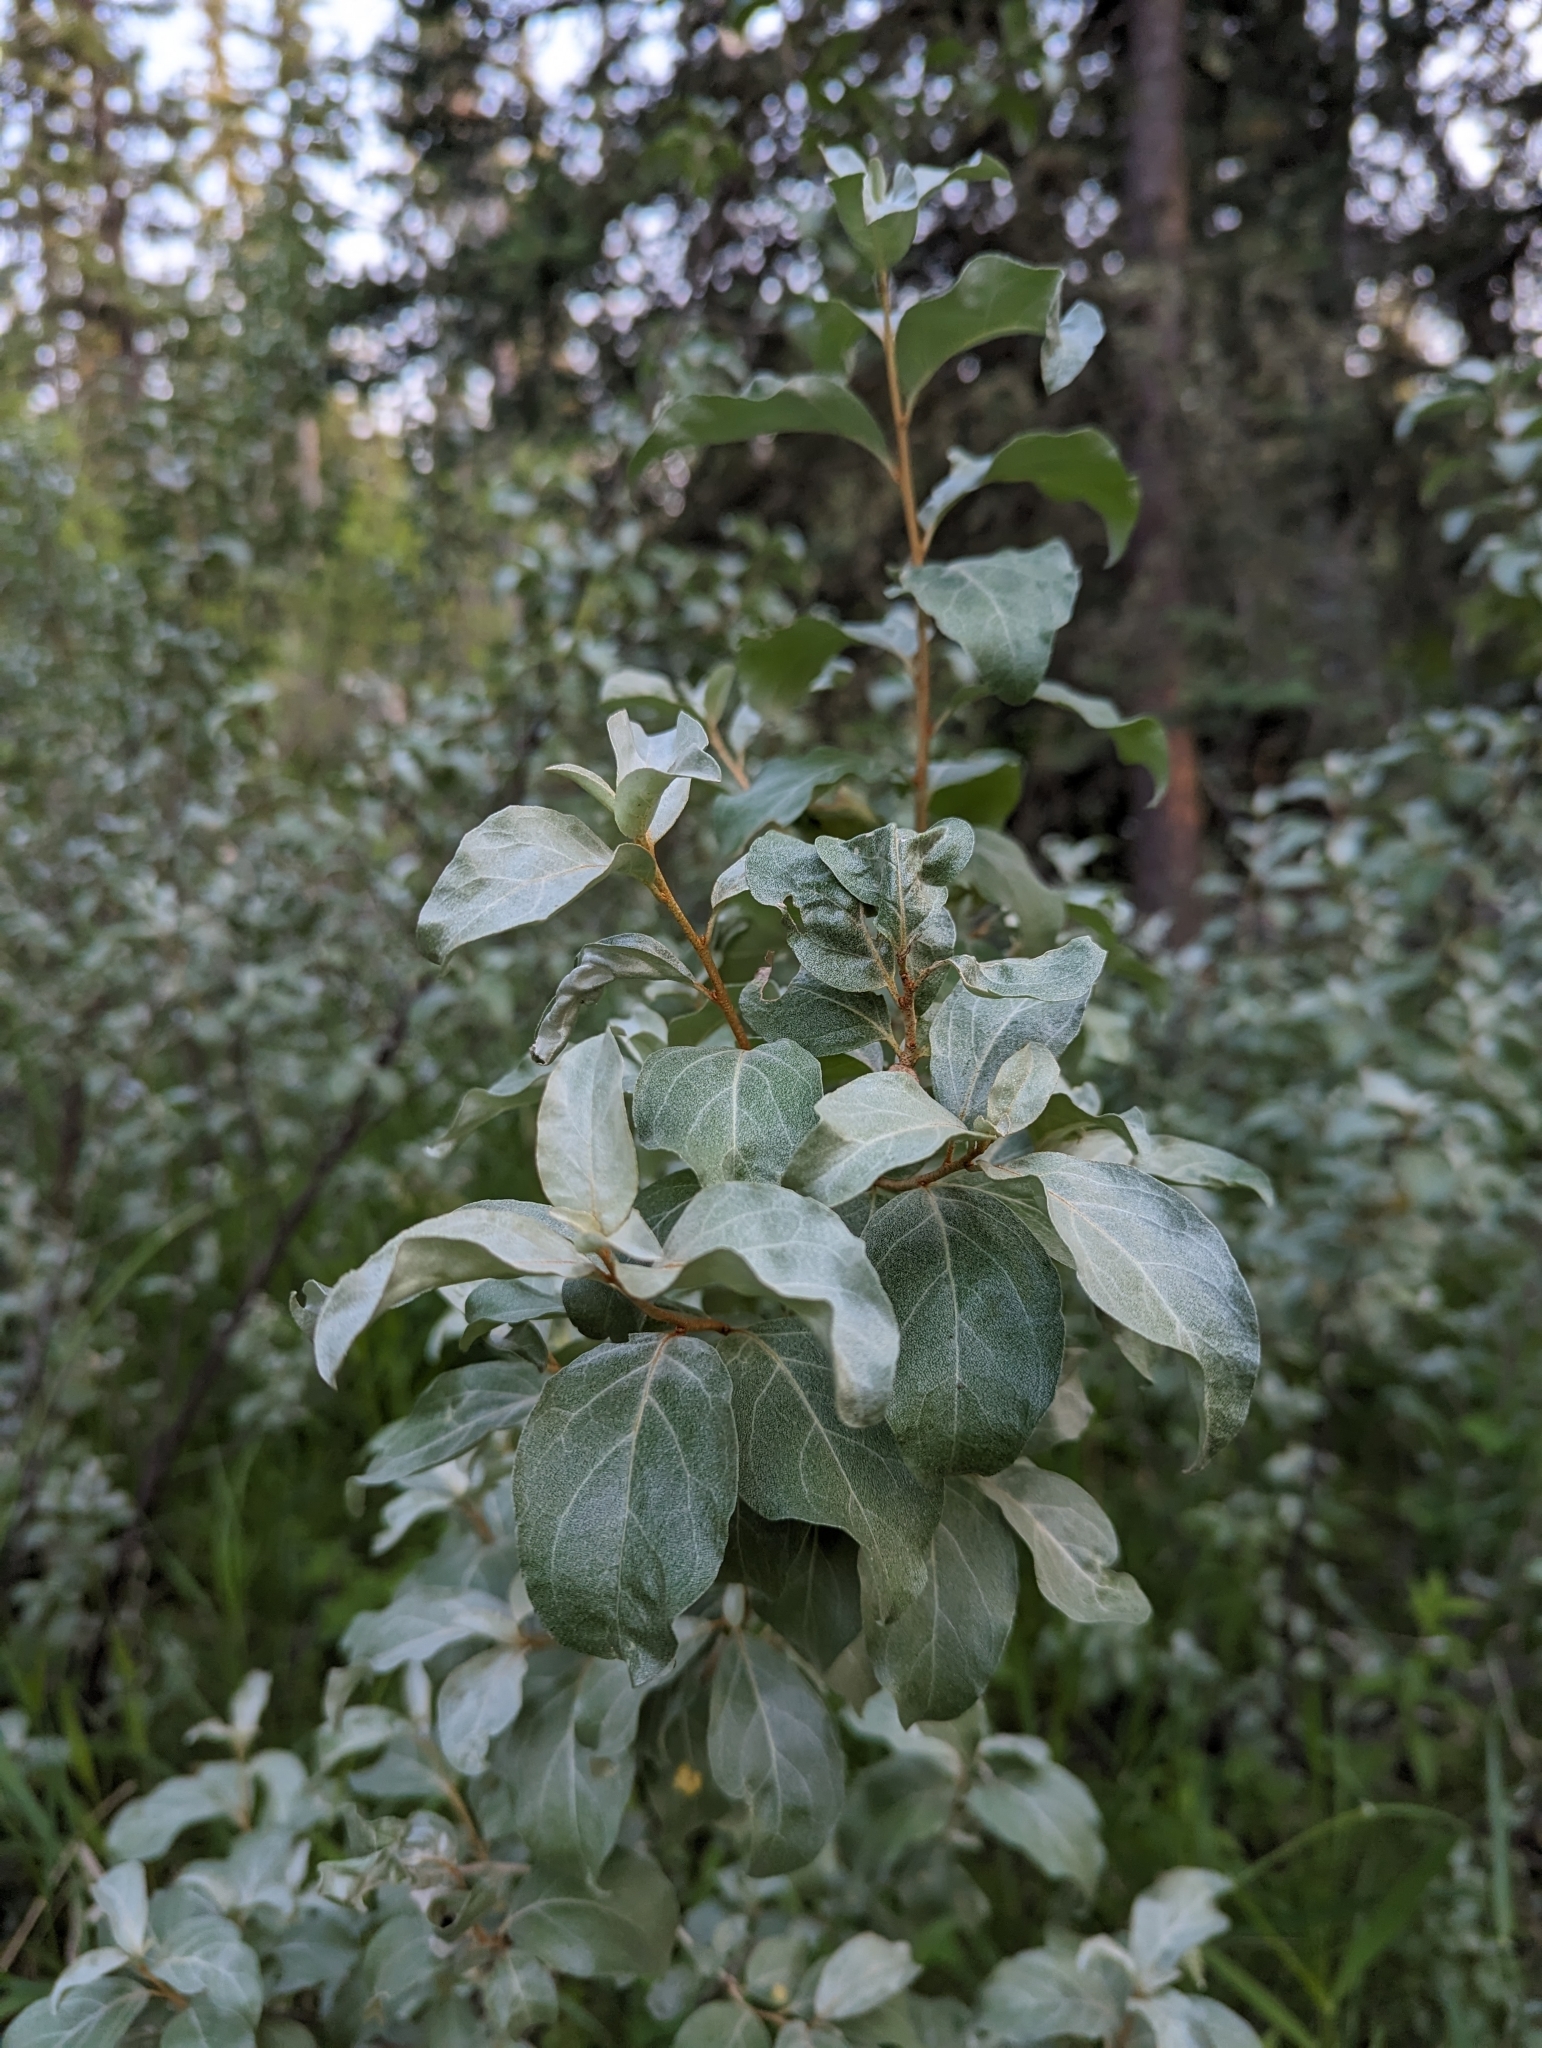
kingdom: Plantae
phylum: Tracheophyta
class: Magnoliopsida
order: Rosales
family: Elaeagnaceae
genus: Elaeagnus
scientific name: Elaeagnus commutata
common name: Silverberry
